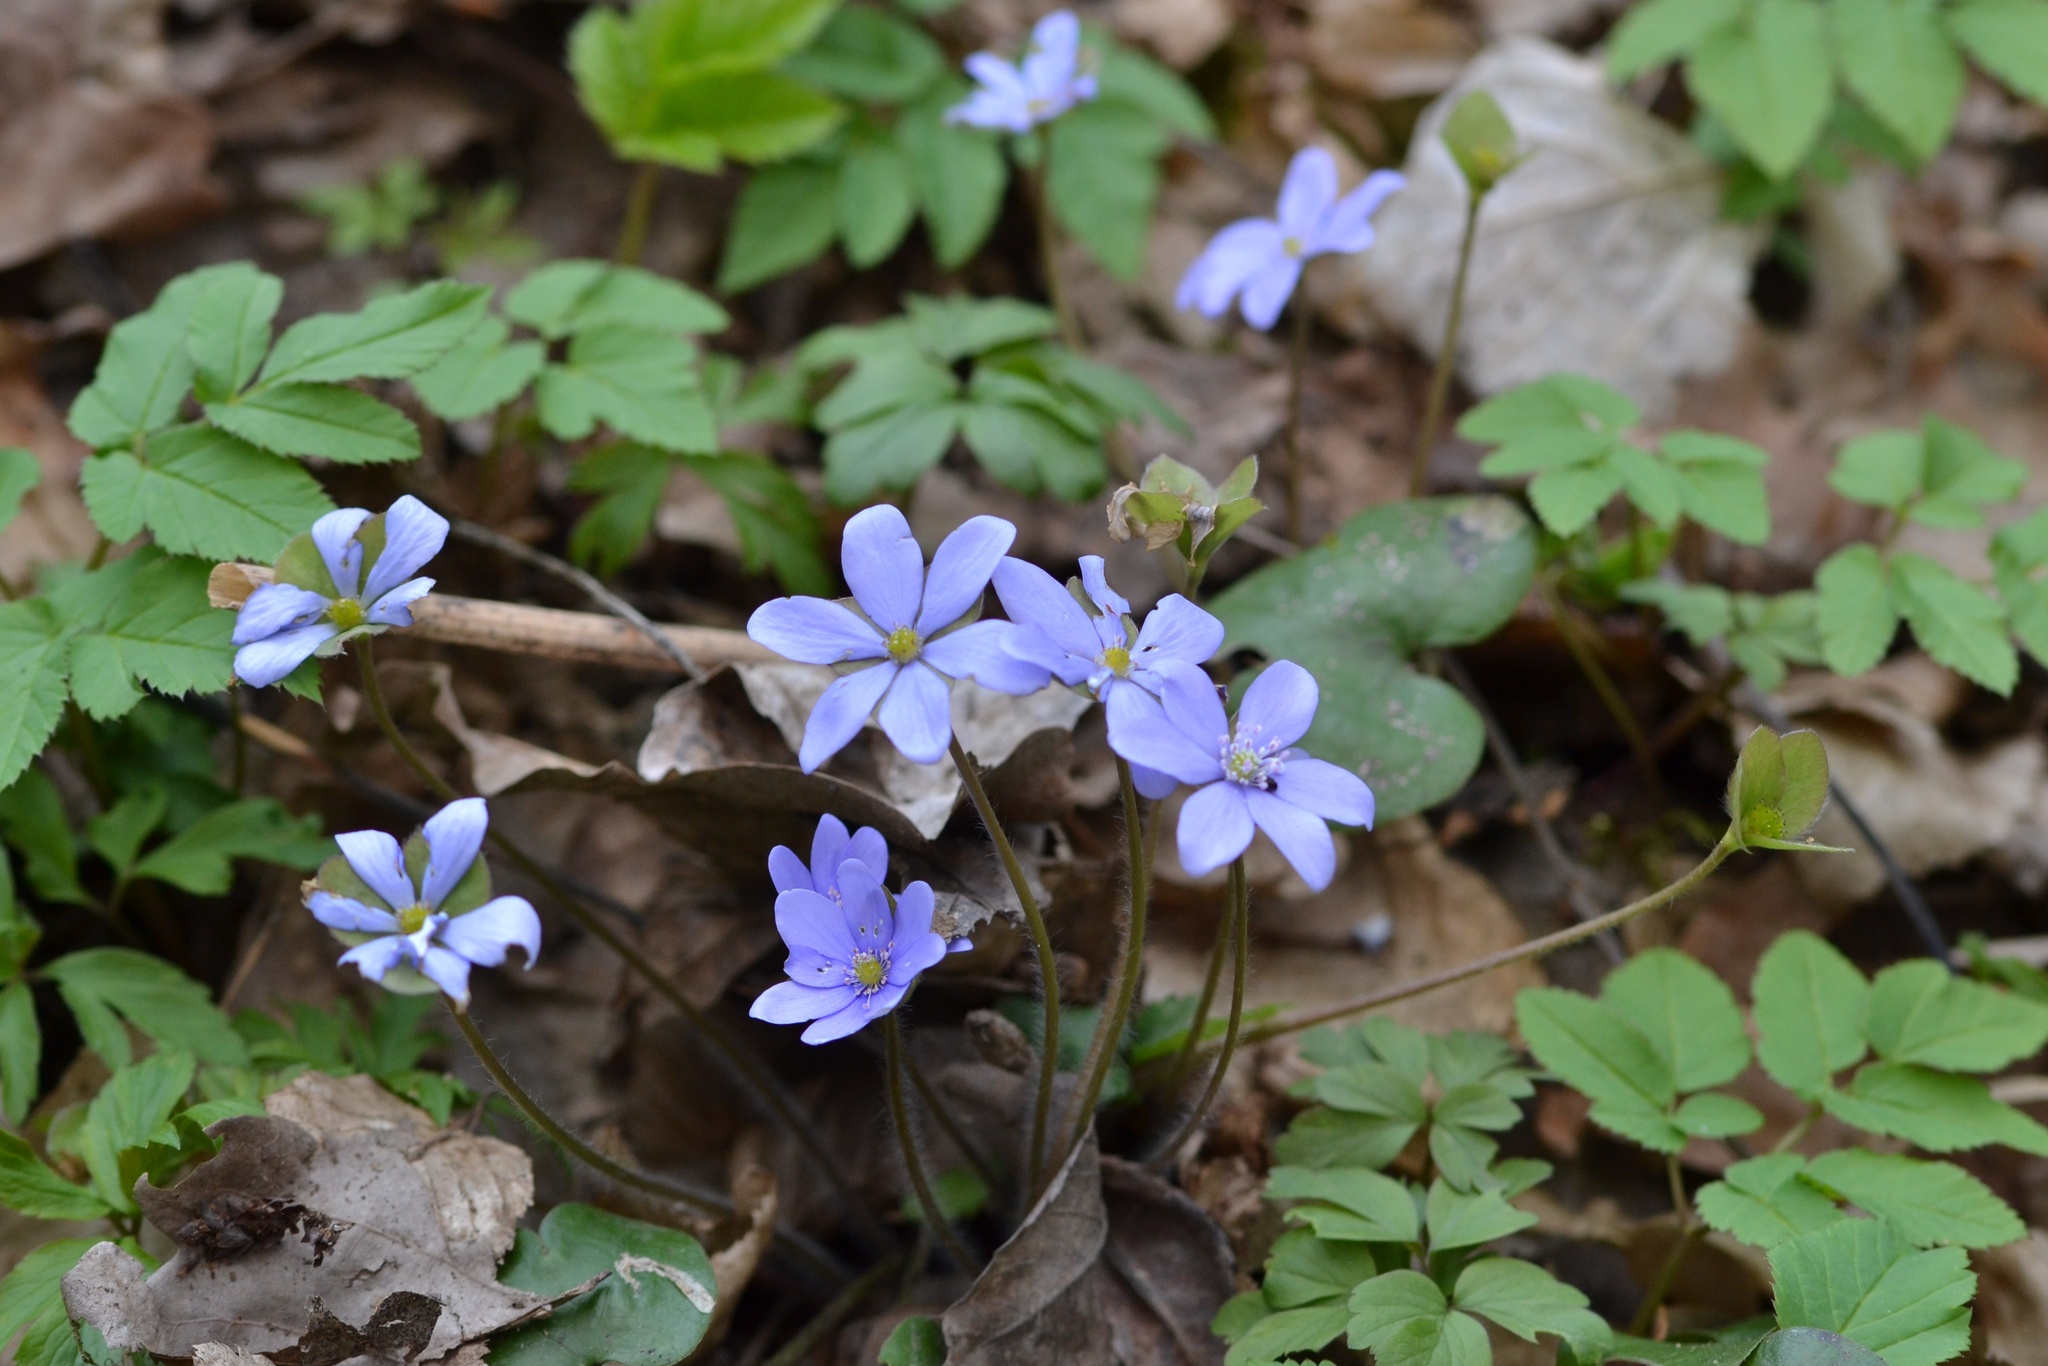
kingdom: Plantae
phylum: Tracheophyta
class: Magnoliopsida
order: Ranunculales
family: Ranunculaceae
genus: Hepatica
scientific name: Hepatica nobilis
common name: Liverleaf
